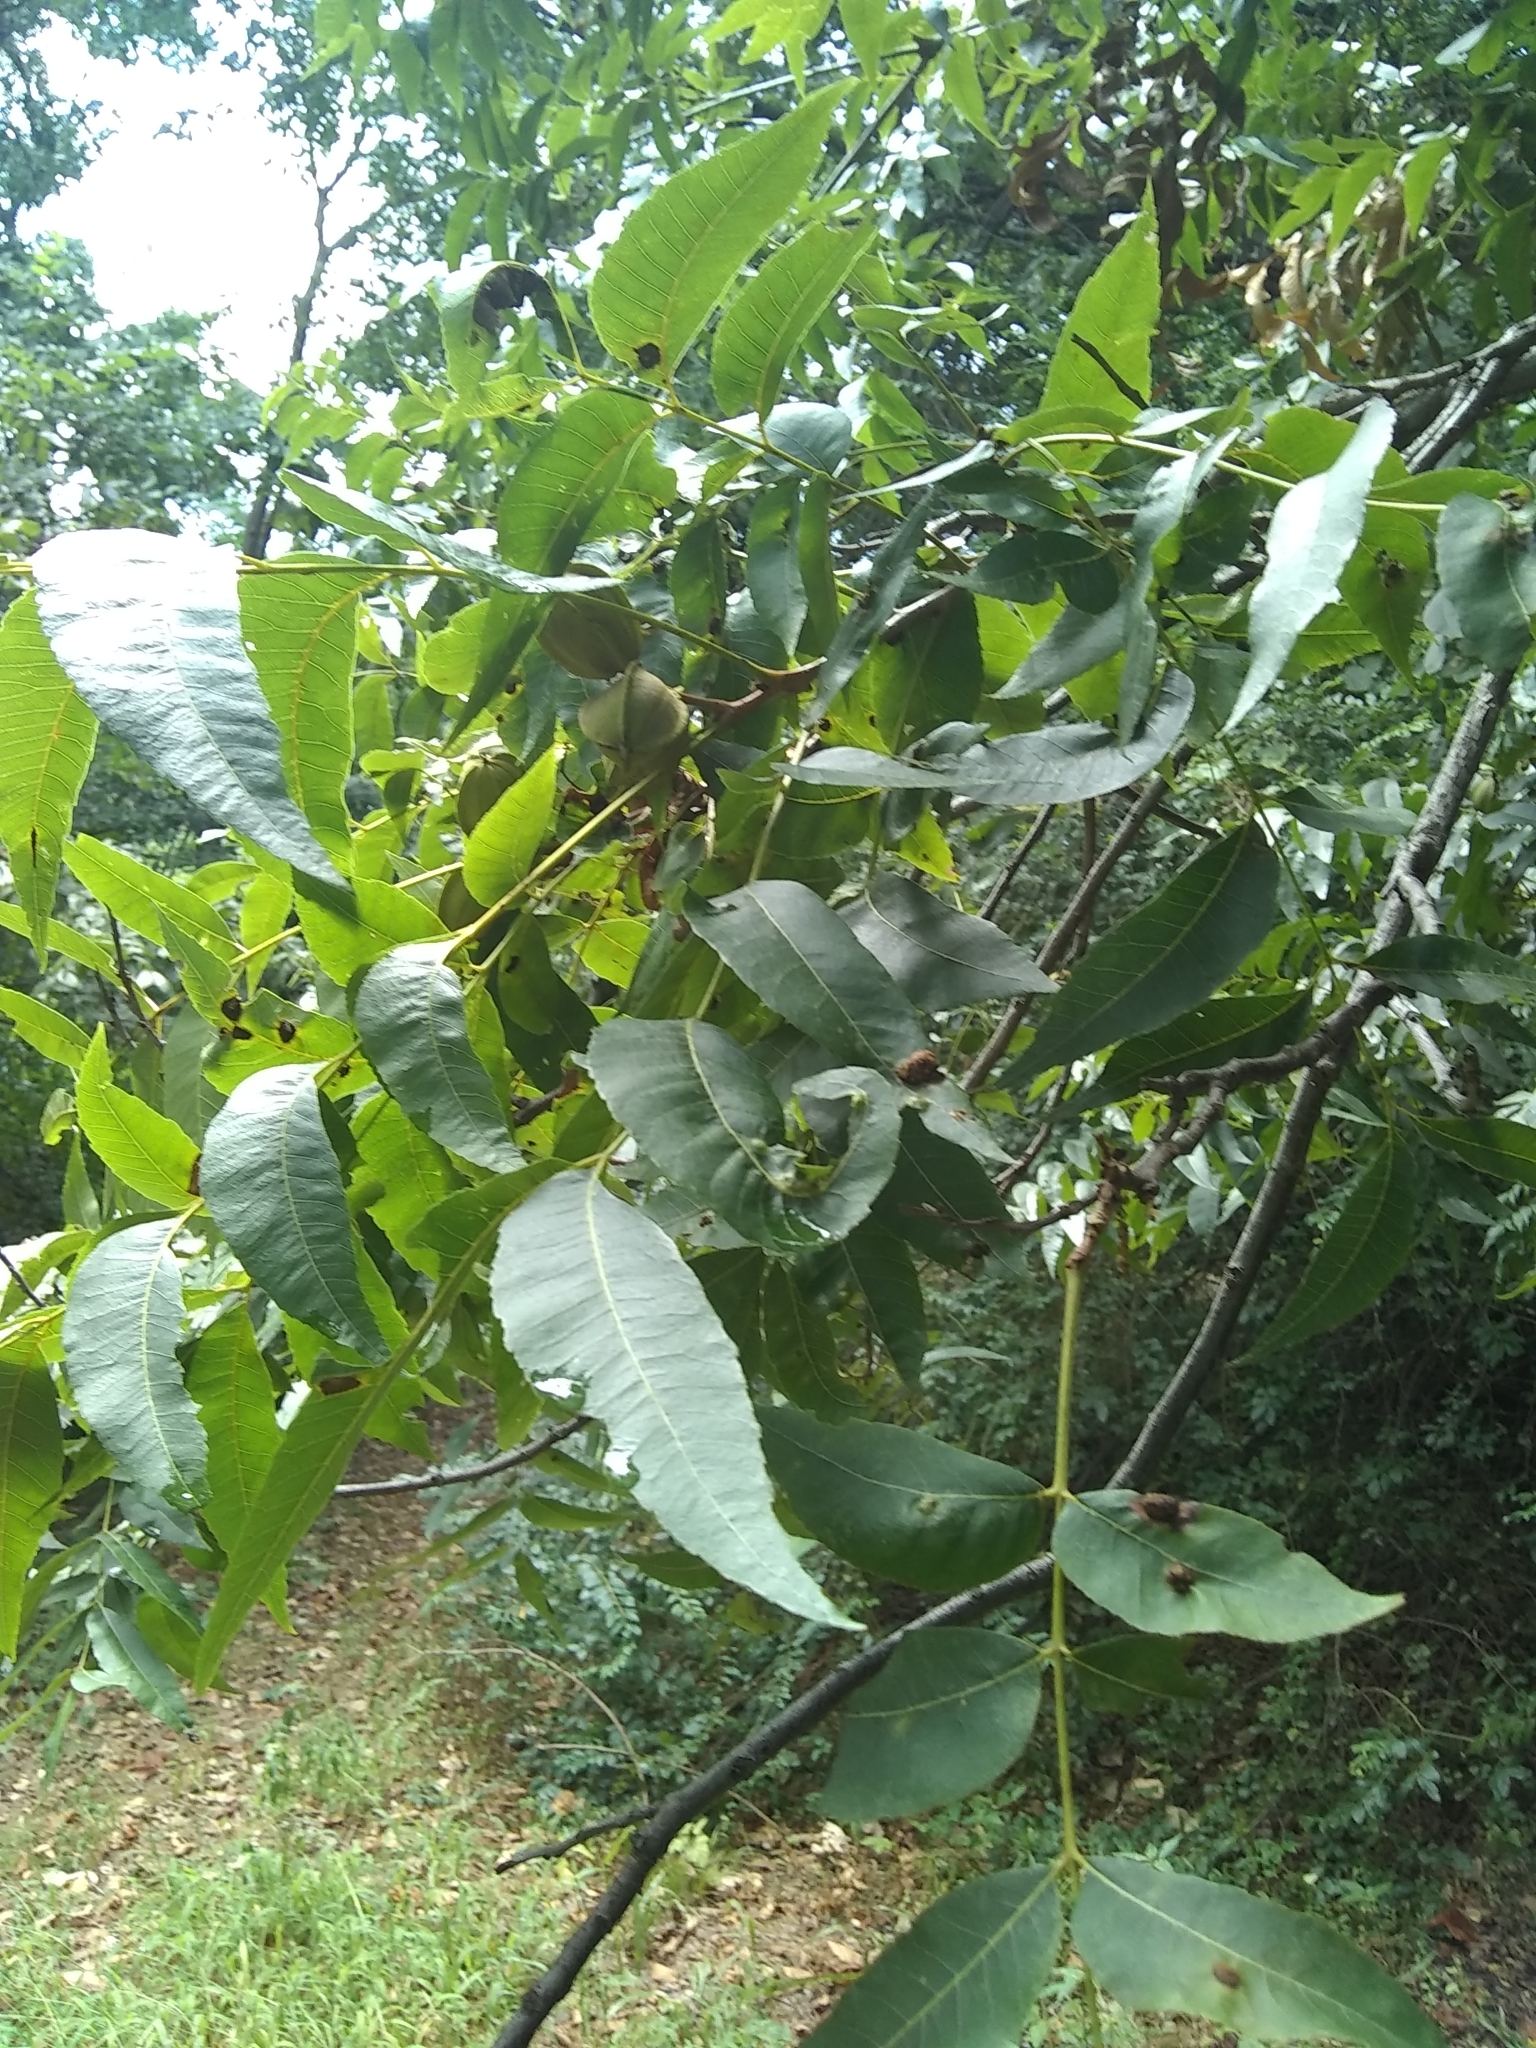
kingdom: Plantae
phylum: Tracheophyta
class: Magnoliopsida
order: Fagales
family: Juglandaceae
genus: Carya
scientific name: Carya illinoinensis
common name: Pecan
